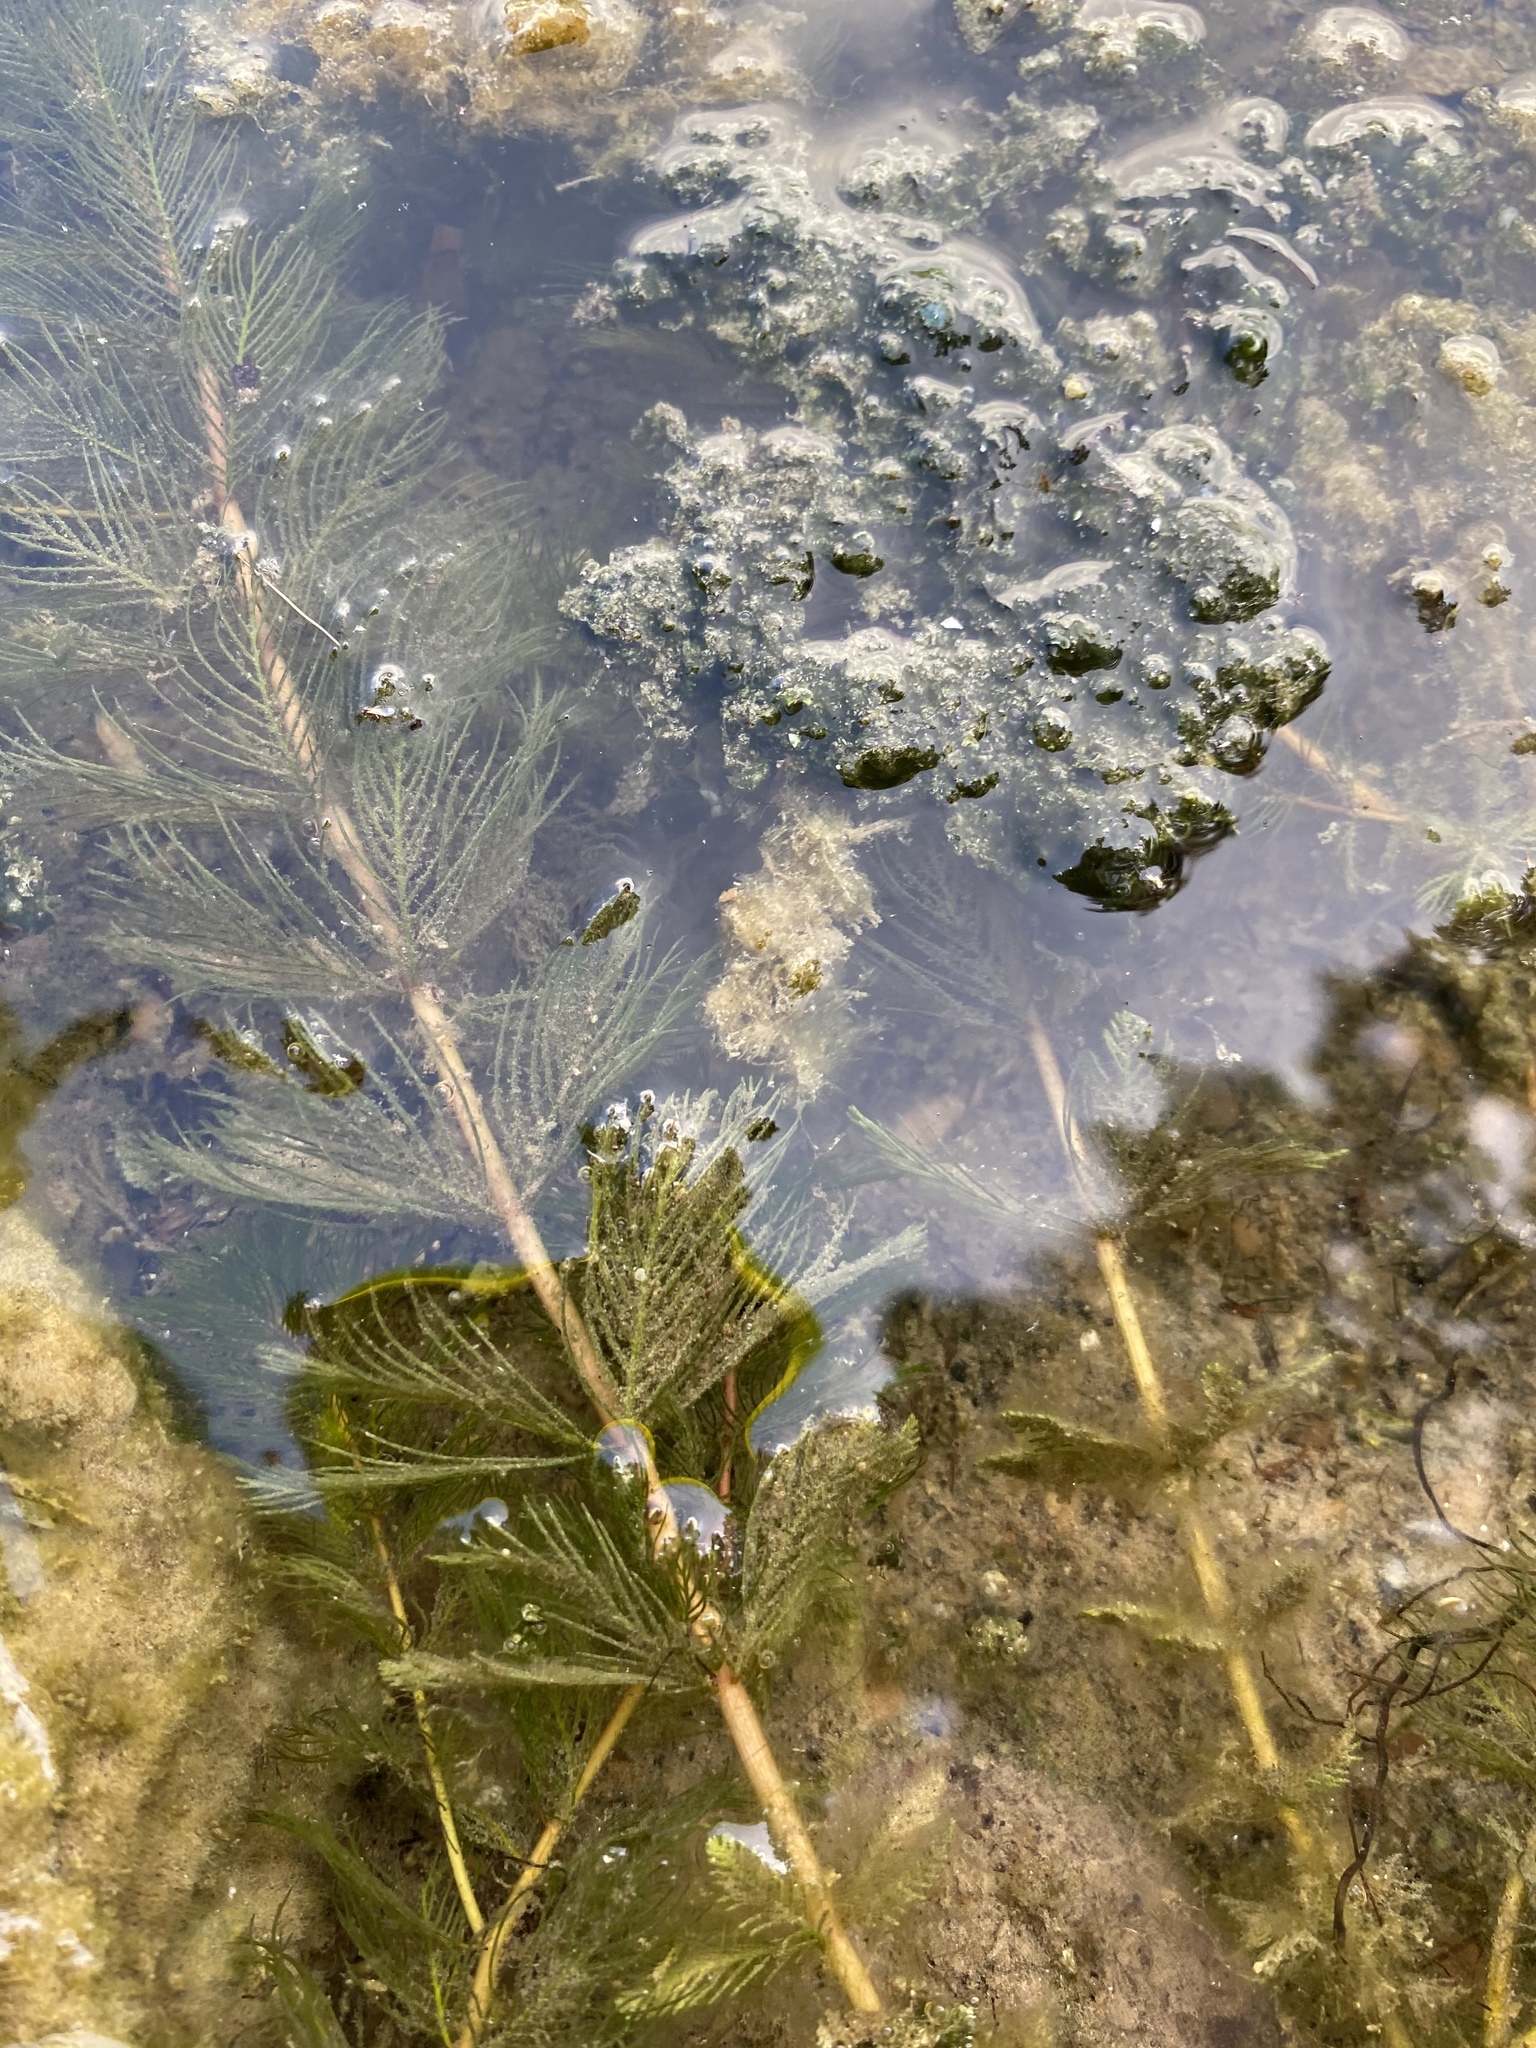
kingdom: Plantae
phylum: Tracheophyta
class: Magnoliopsida
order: Saxifragales
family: Haloragaceae
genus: Myriophyllum
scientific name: Myriophyllum spicatum
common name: Spiked water-milfoil
